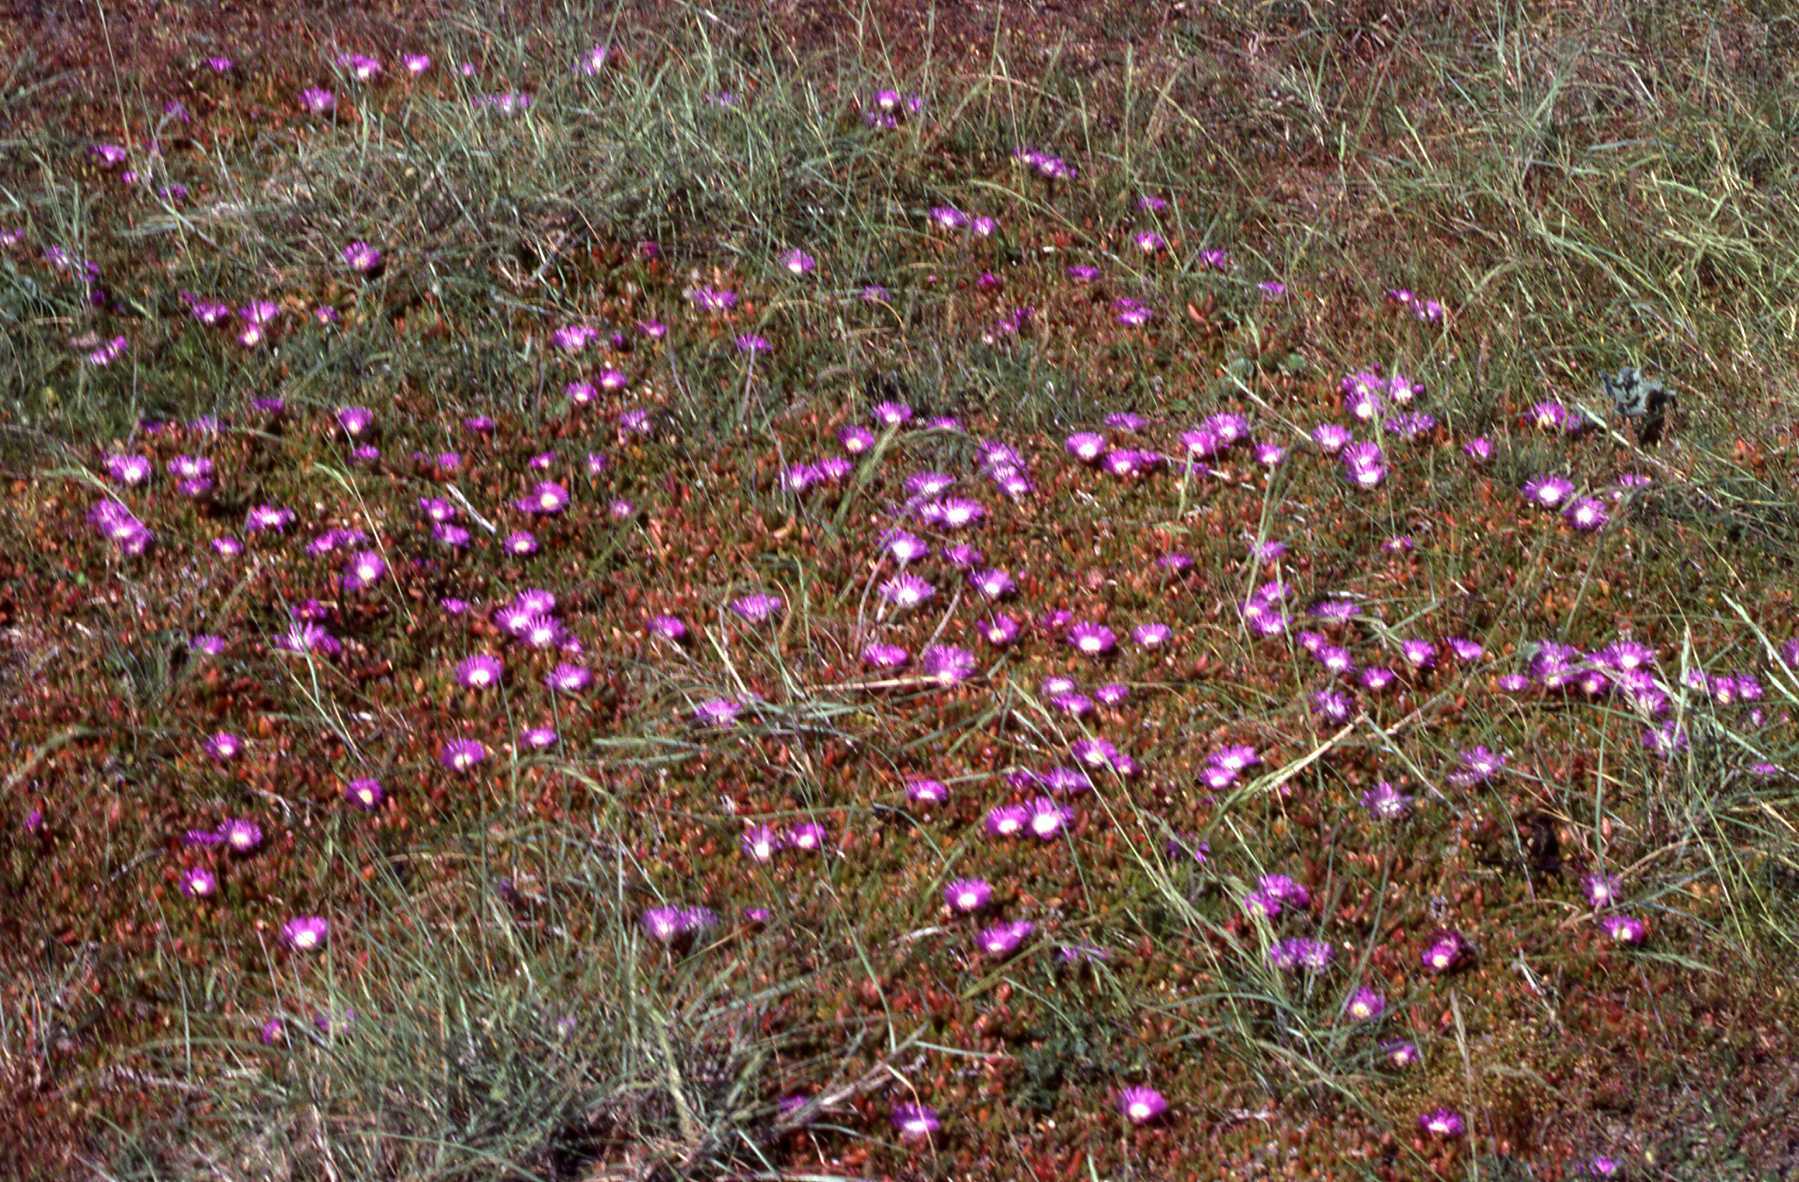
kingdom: Plantae
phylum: Tracheophyta
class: Magnoliopsida
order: Caryophyllales
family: Aizoaceae
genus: Disphyma
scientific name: Disphyma crassifolium
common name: Purple dewplant
